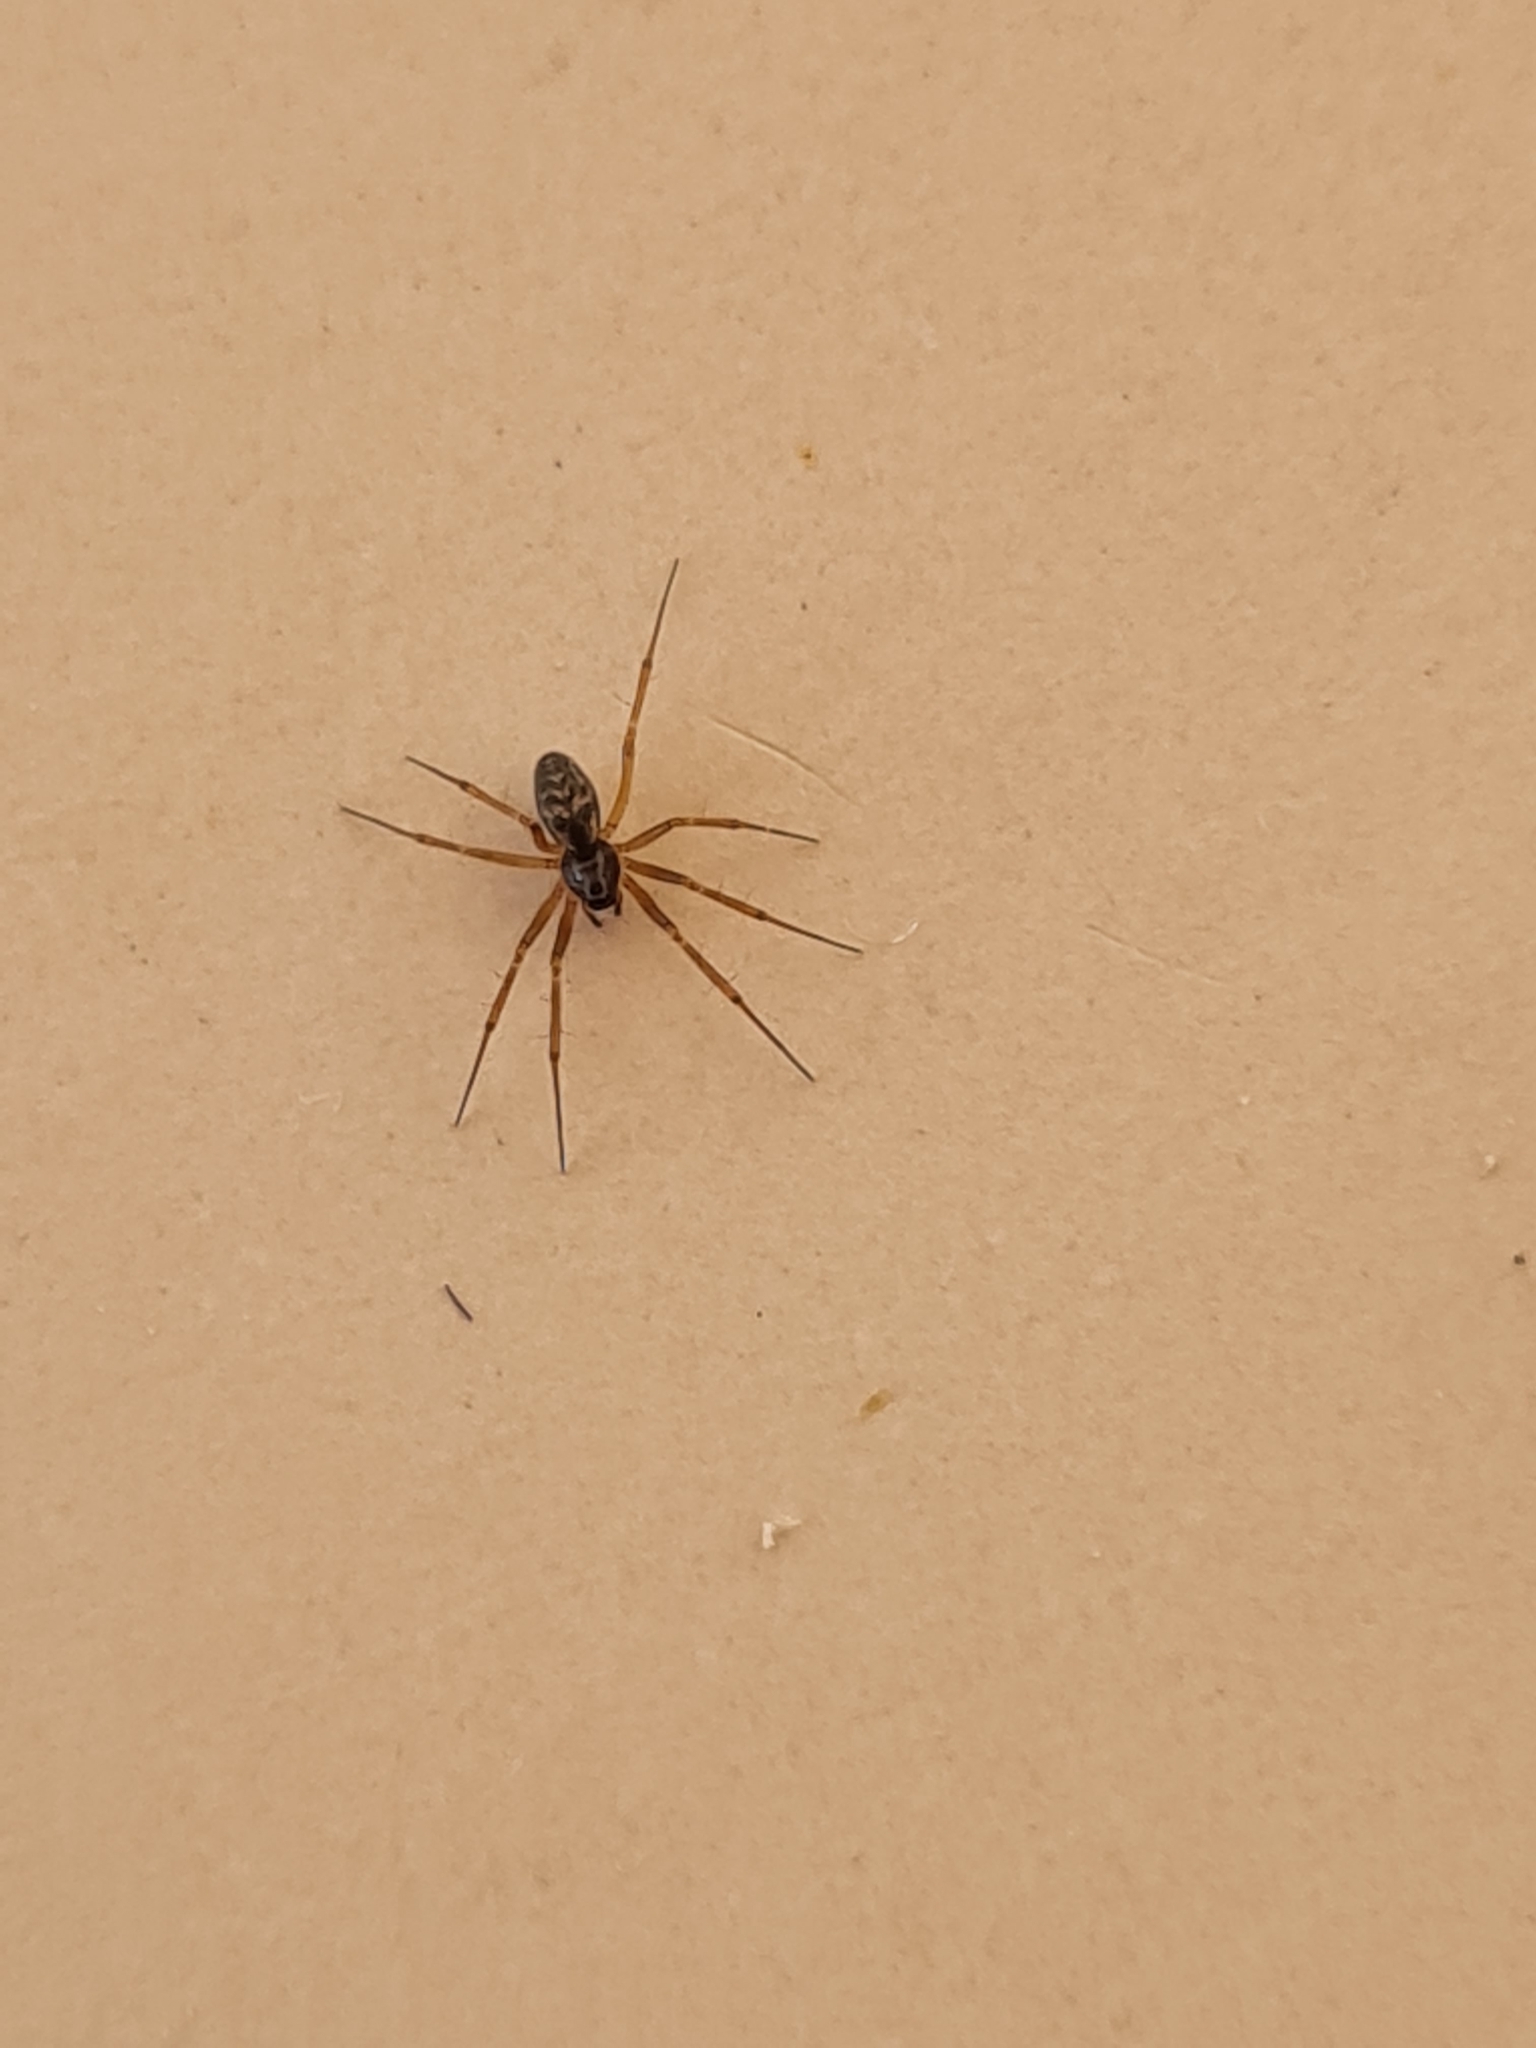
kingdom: Animalia
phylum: Arthropoda
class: Arachnida
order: Araneae
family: Linyphiidae
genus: Tenuiphantes
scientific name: Tenuiphantes tenuis
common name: Dwarf weaver
